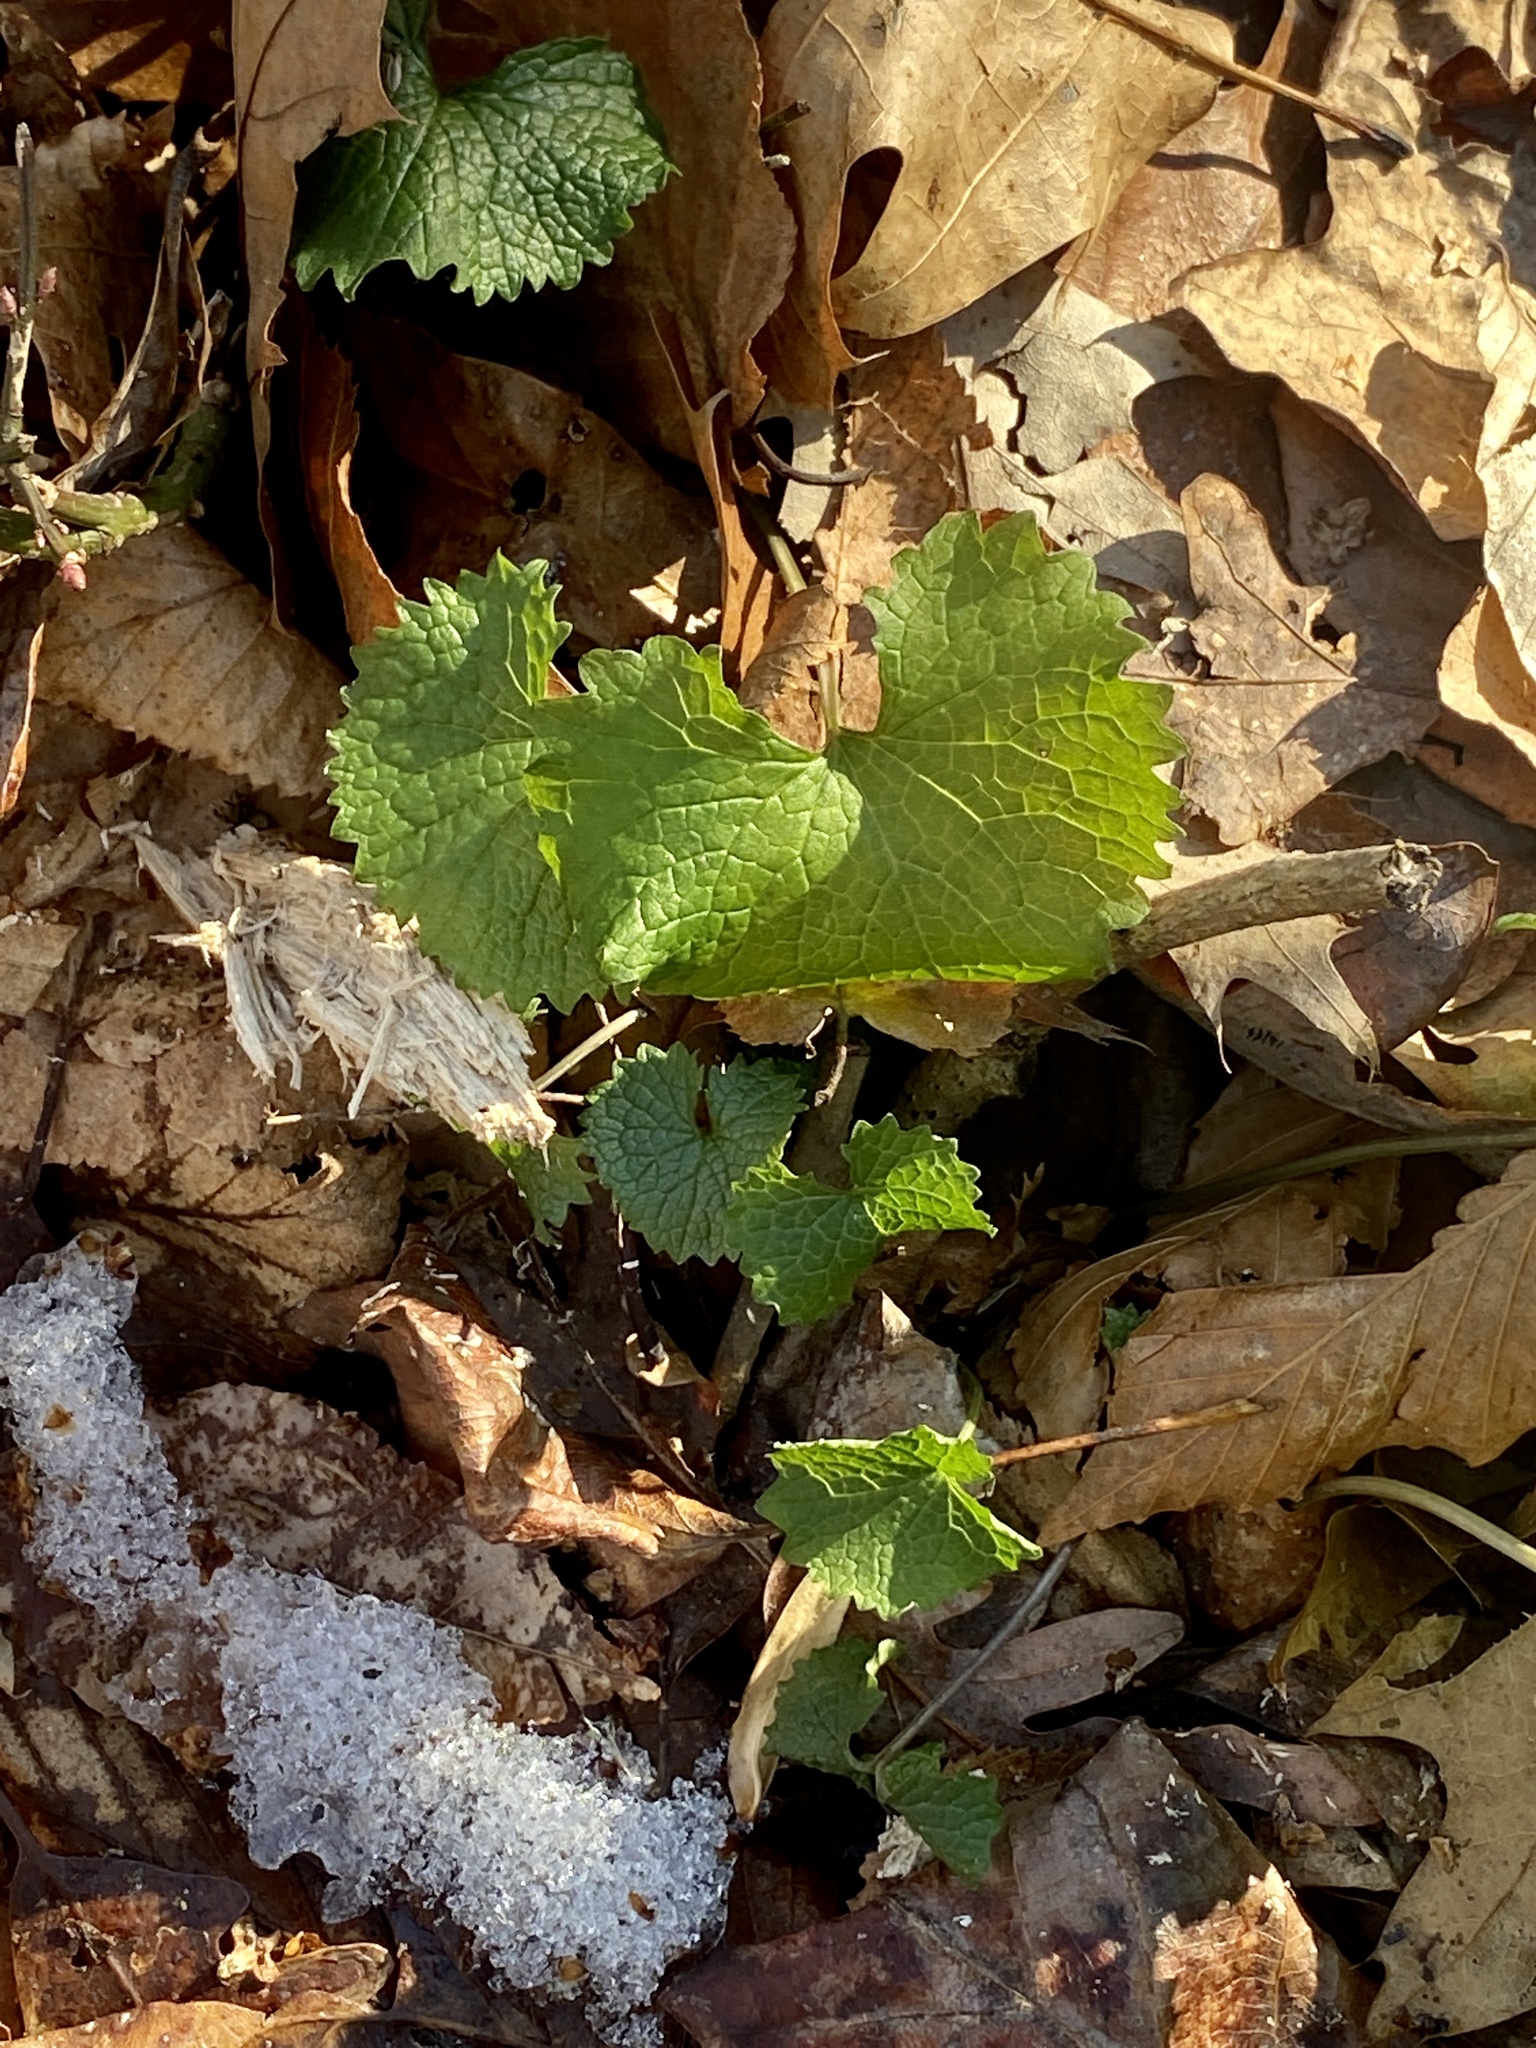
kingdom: Plantae
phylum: Tracheophyta
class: Magnoliopsida
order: Brassicales
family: Brassicaceae
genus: Alliaria
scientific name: Alliaria petiolata
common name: Garlic mustard
